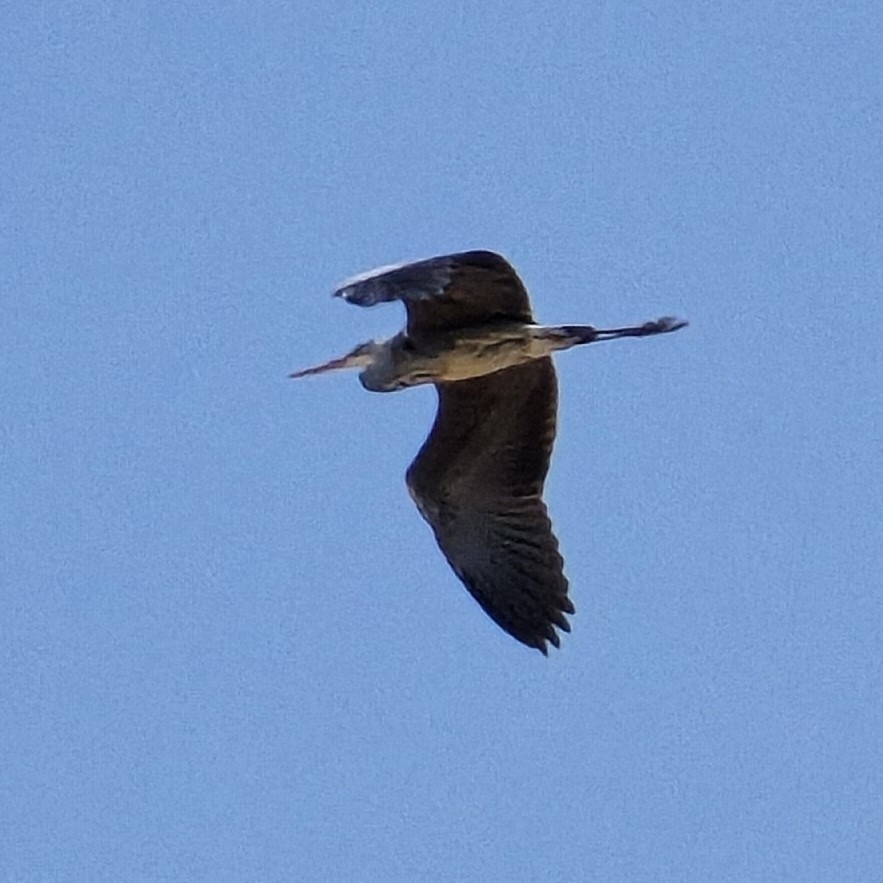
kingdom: Animalia
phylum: Chordata
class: Aves
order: Pelecaniformes
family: Ardeidae
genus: Ardea
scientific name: Ardea cinerea
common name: Grey heron
